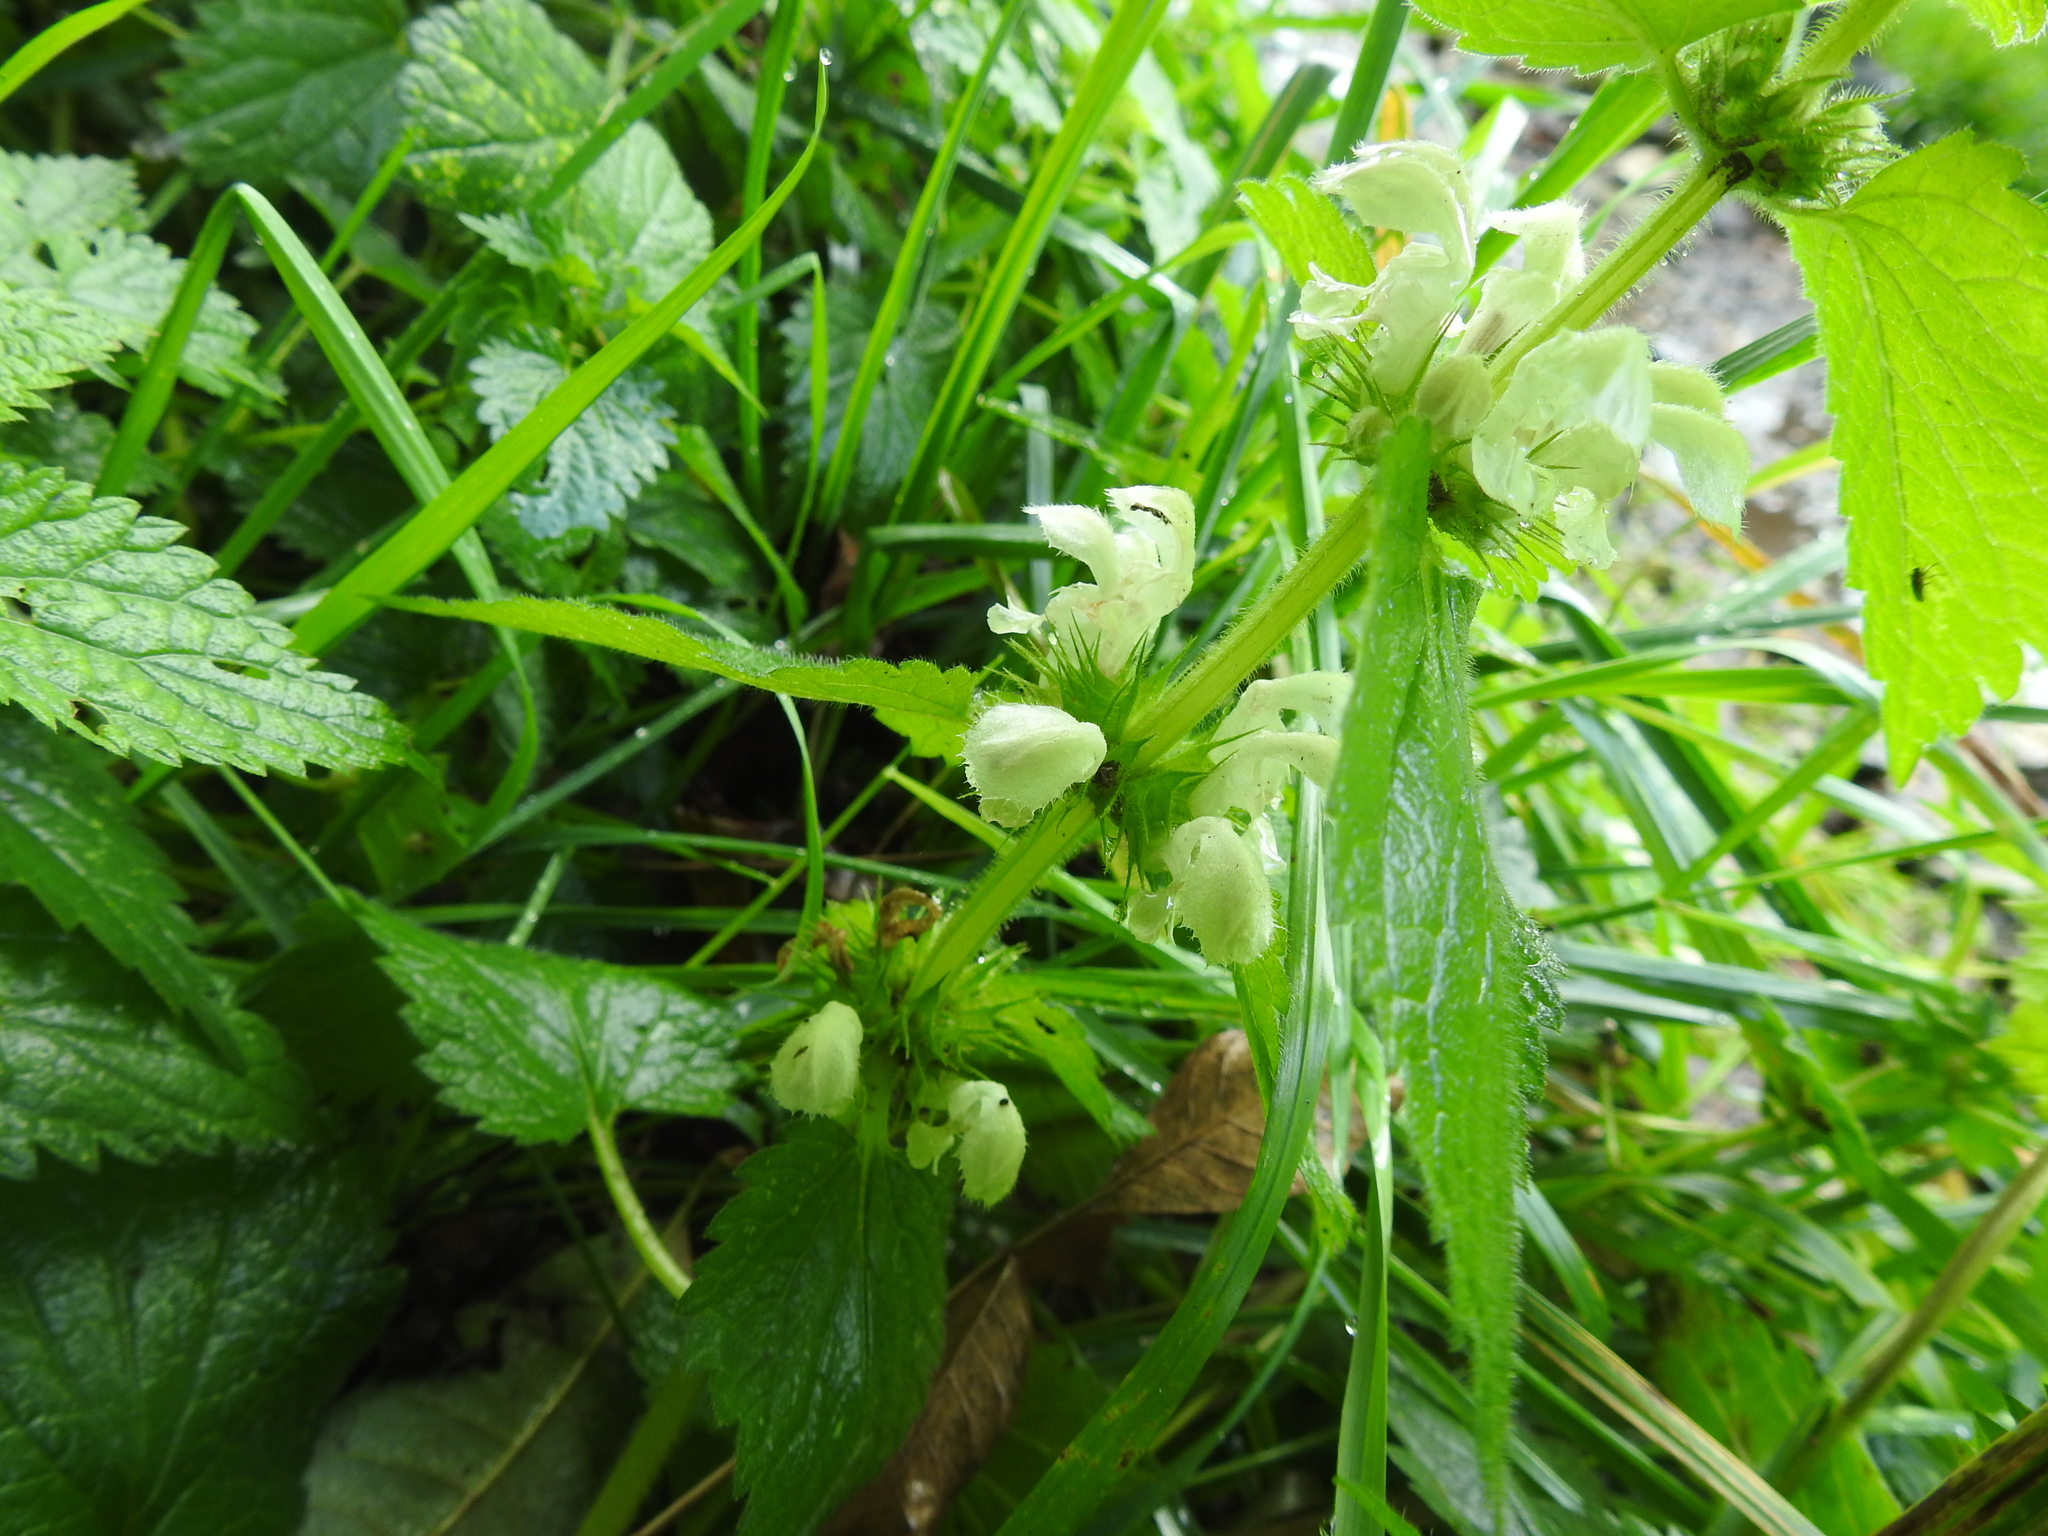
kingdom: Plantae
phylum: Tracheophyta
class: Magnoliopsida
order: Lamiales
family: Lamiaceae
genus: Lamium
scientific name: Lamium album
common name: White dead-nettle
